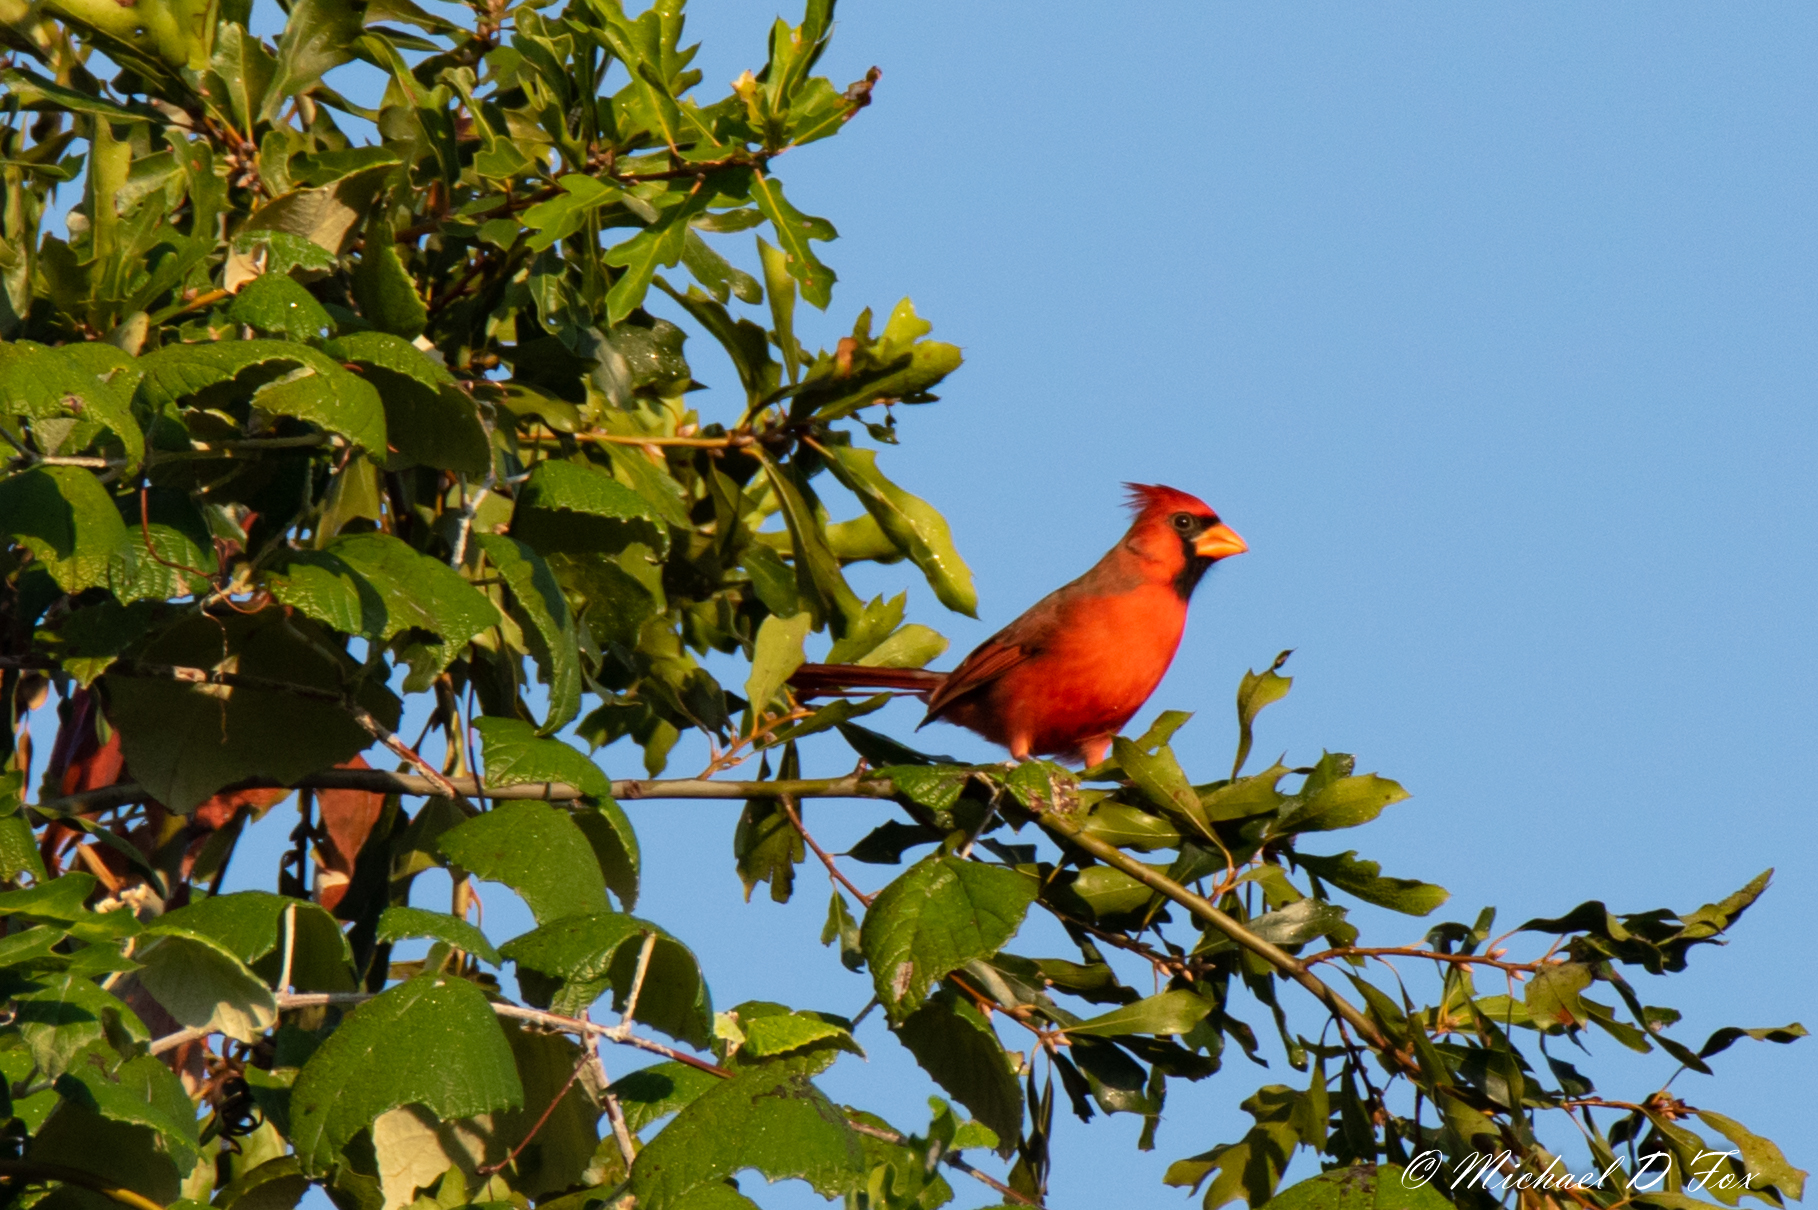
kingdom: Animalia
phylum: Chordata
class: Aves
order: Passeriformes
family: Cardinalidae
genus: Cardinalis
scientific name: Cardinalis cardinalis
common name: Northern cardinal
